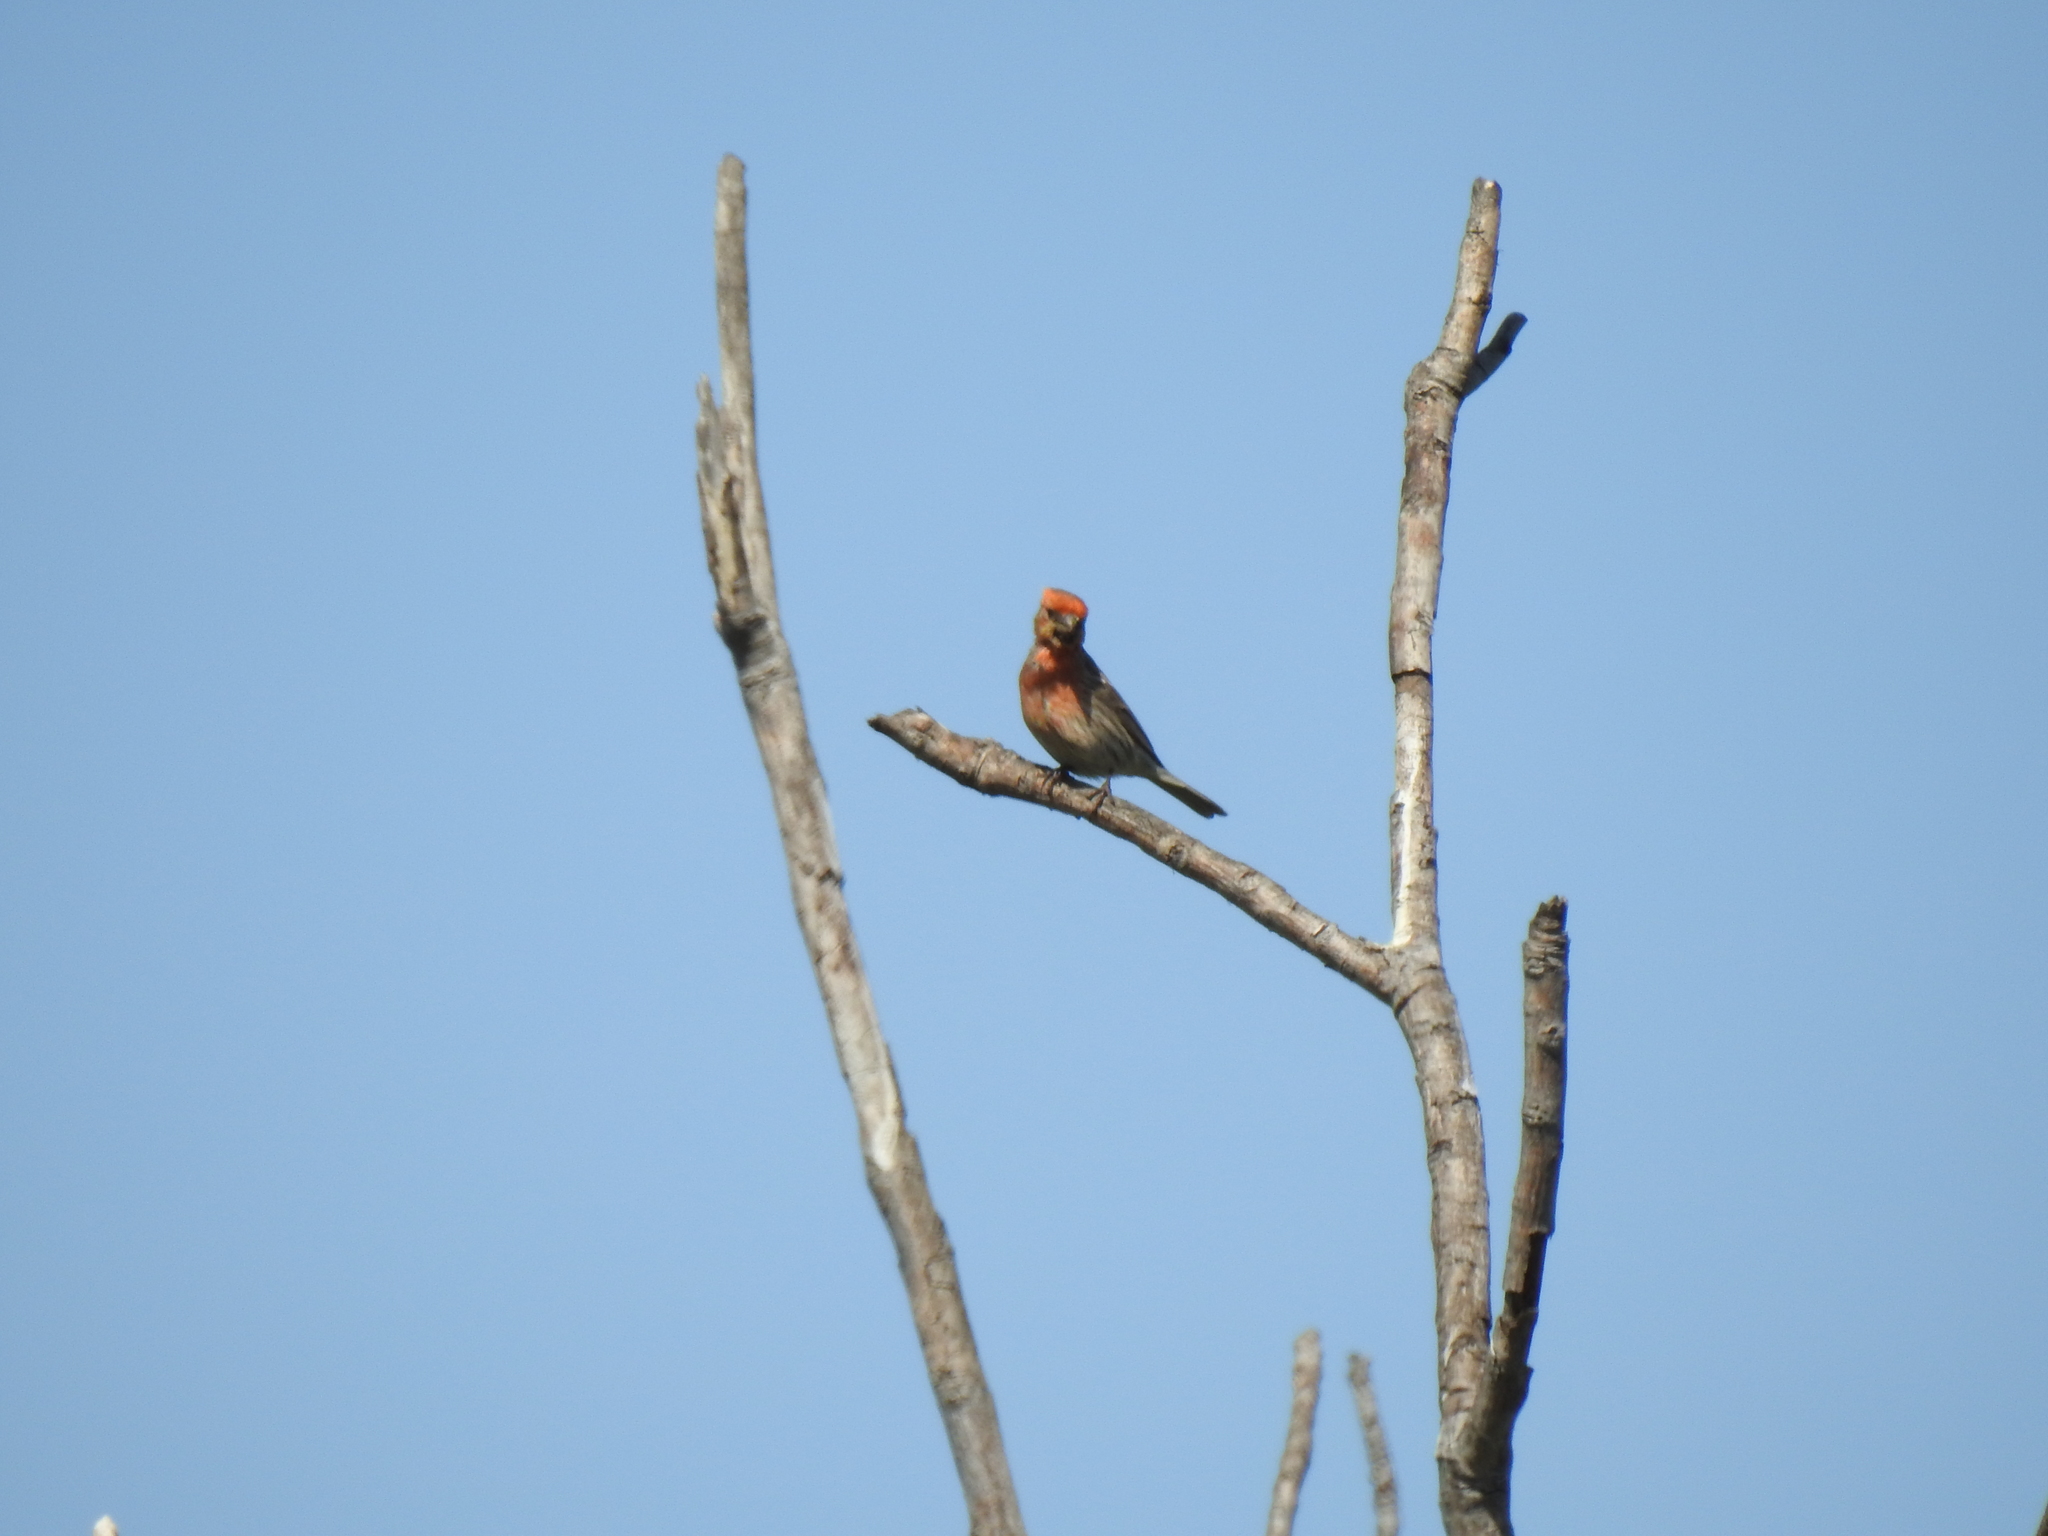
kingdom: Animalia
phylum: Chordata
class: Aves
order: Passeriformes
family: Fringillidae
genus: Haemorhous
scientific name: Haemorhous mexicanus
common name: House finch
